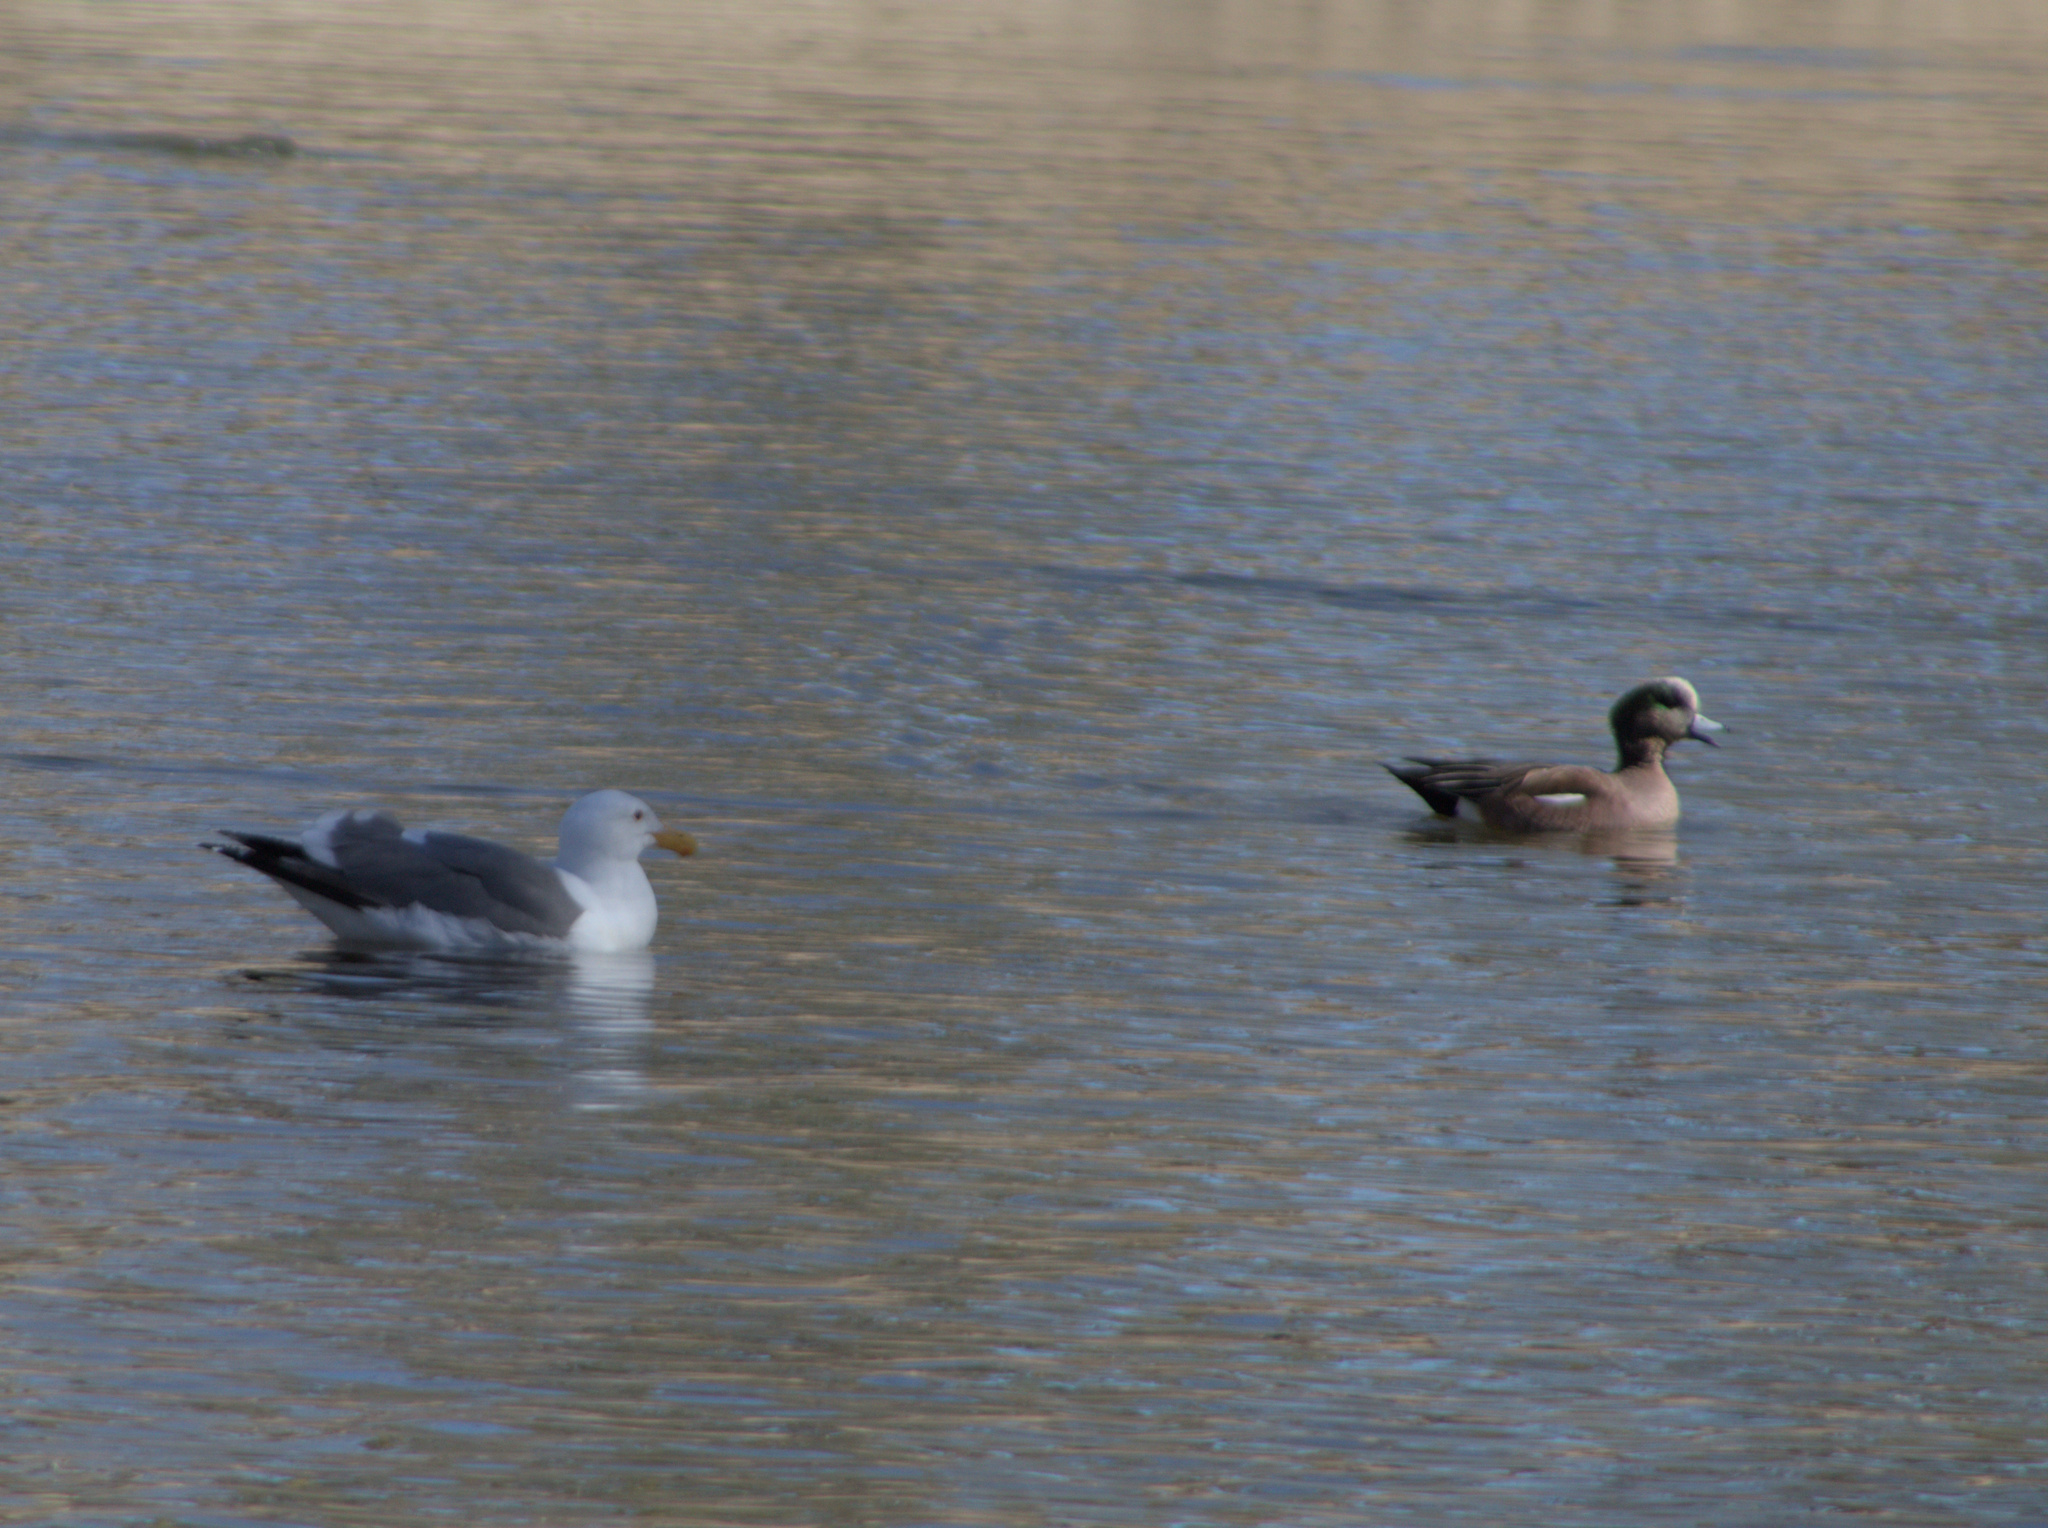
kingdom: Animalia
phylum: Chordata
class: Aves
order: Anseriformes
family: Anatidae
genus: Mareca
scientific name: Mareca americana
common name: American wigeon
